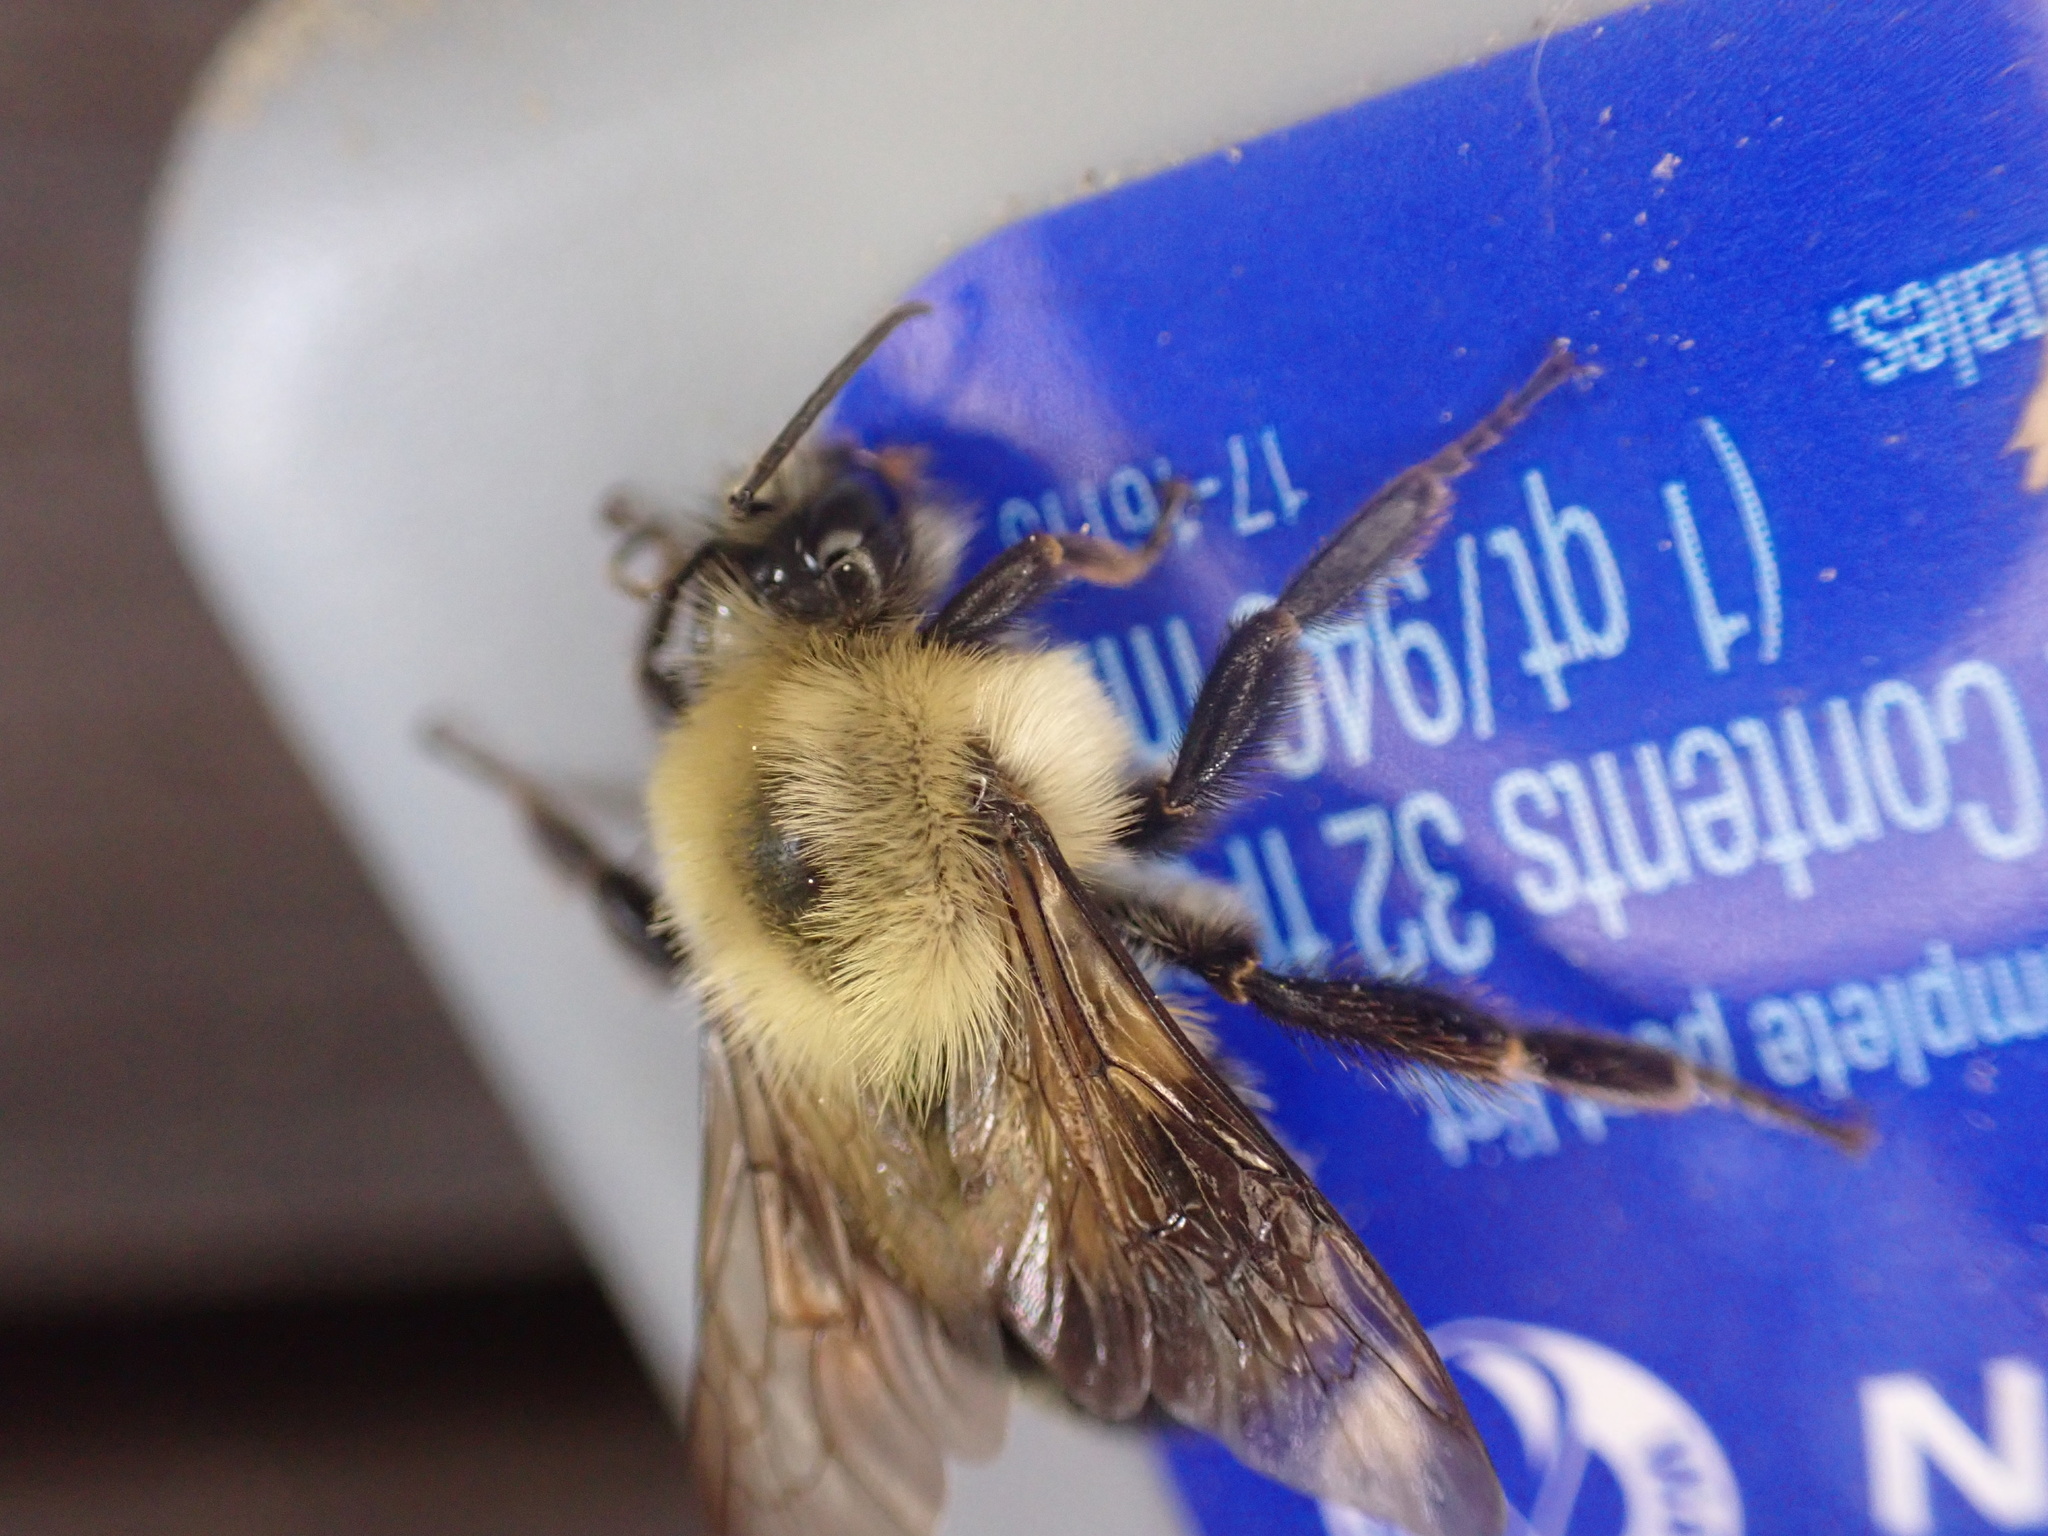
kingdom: Animalia
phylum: Arthropoda
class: Insecta
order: Hymenoptera
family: Apidae
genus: Bombus
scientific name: Bombus bimaculatus
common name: Two-spotted bumble bee
